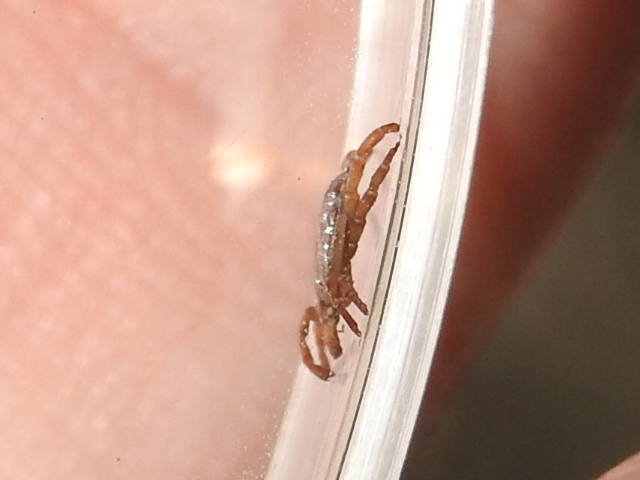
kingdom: Animalia
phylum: Arthropoda
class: Arachnida
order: Ixodida
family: Ixodidae
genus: Amblyomma
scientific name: Amblyomma cajennense
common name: Cayenne tick
